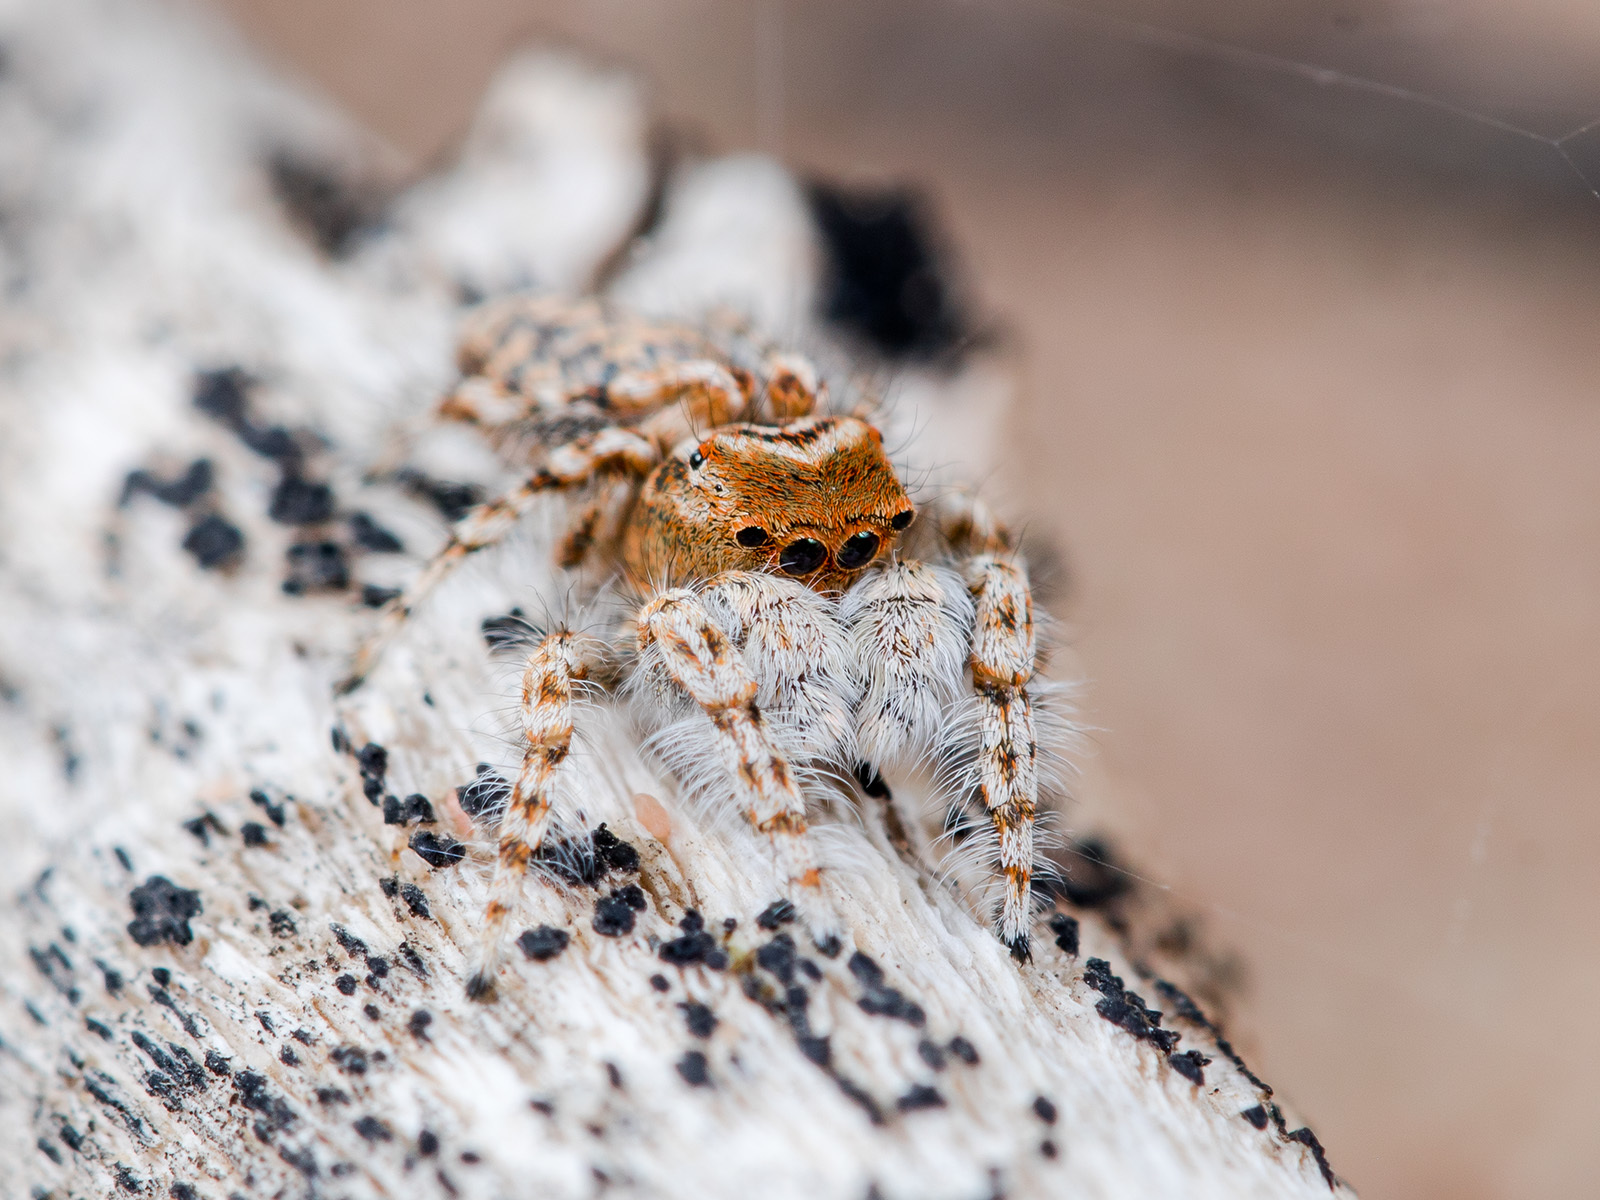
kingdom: Animalia
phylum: Arthropoda
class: Arachnida
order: Araneae
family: Salticidae
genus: Yllenus
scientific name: Yllenus uiguricus
